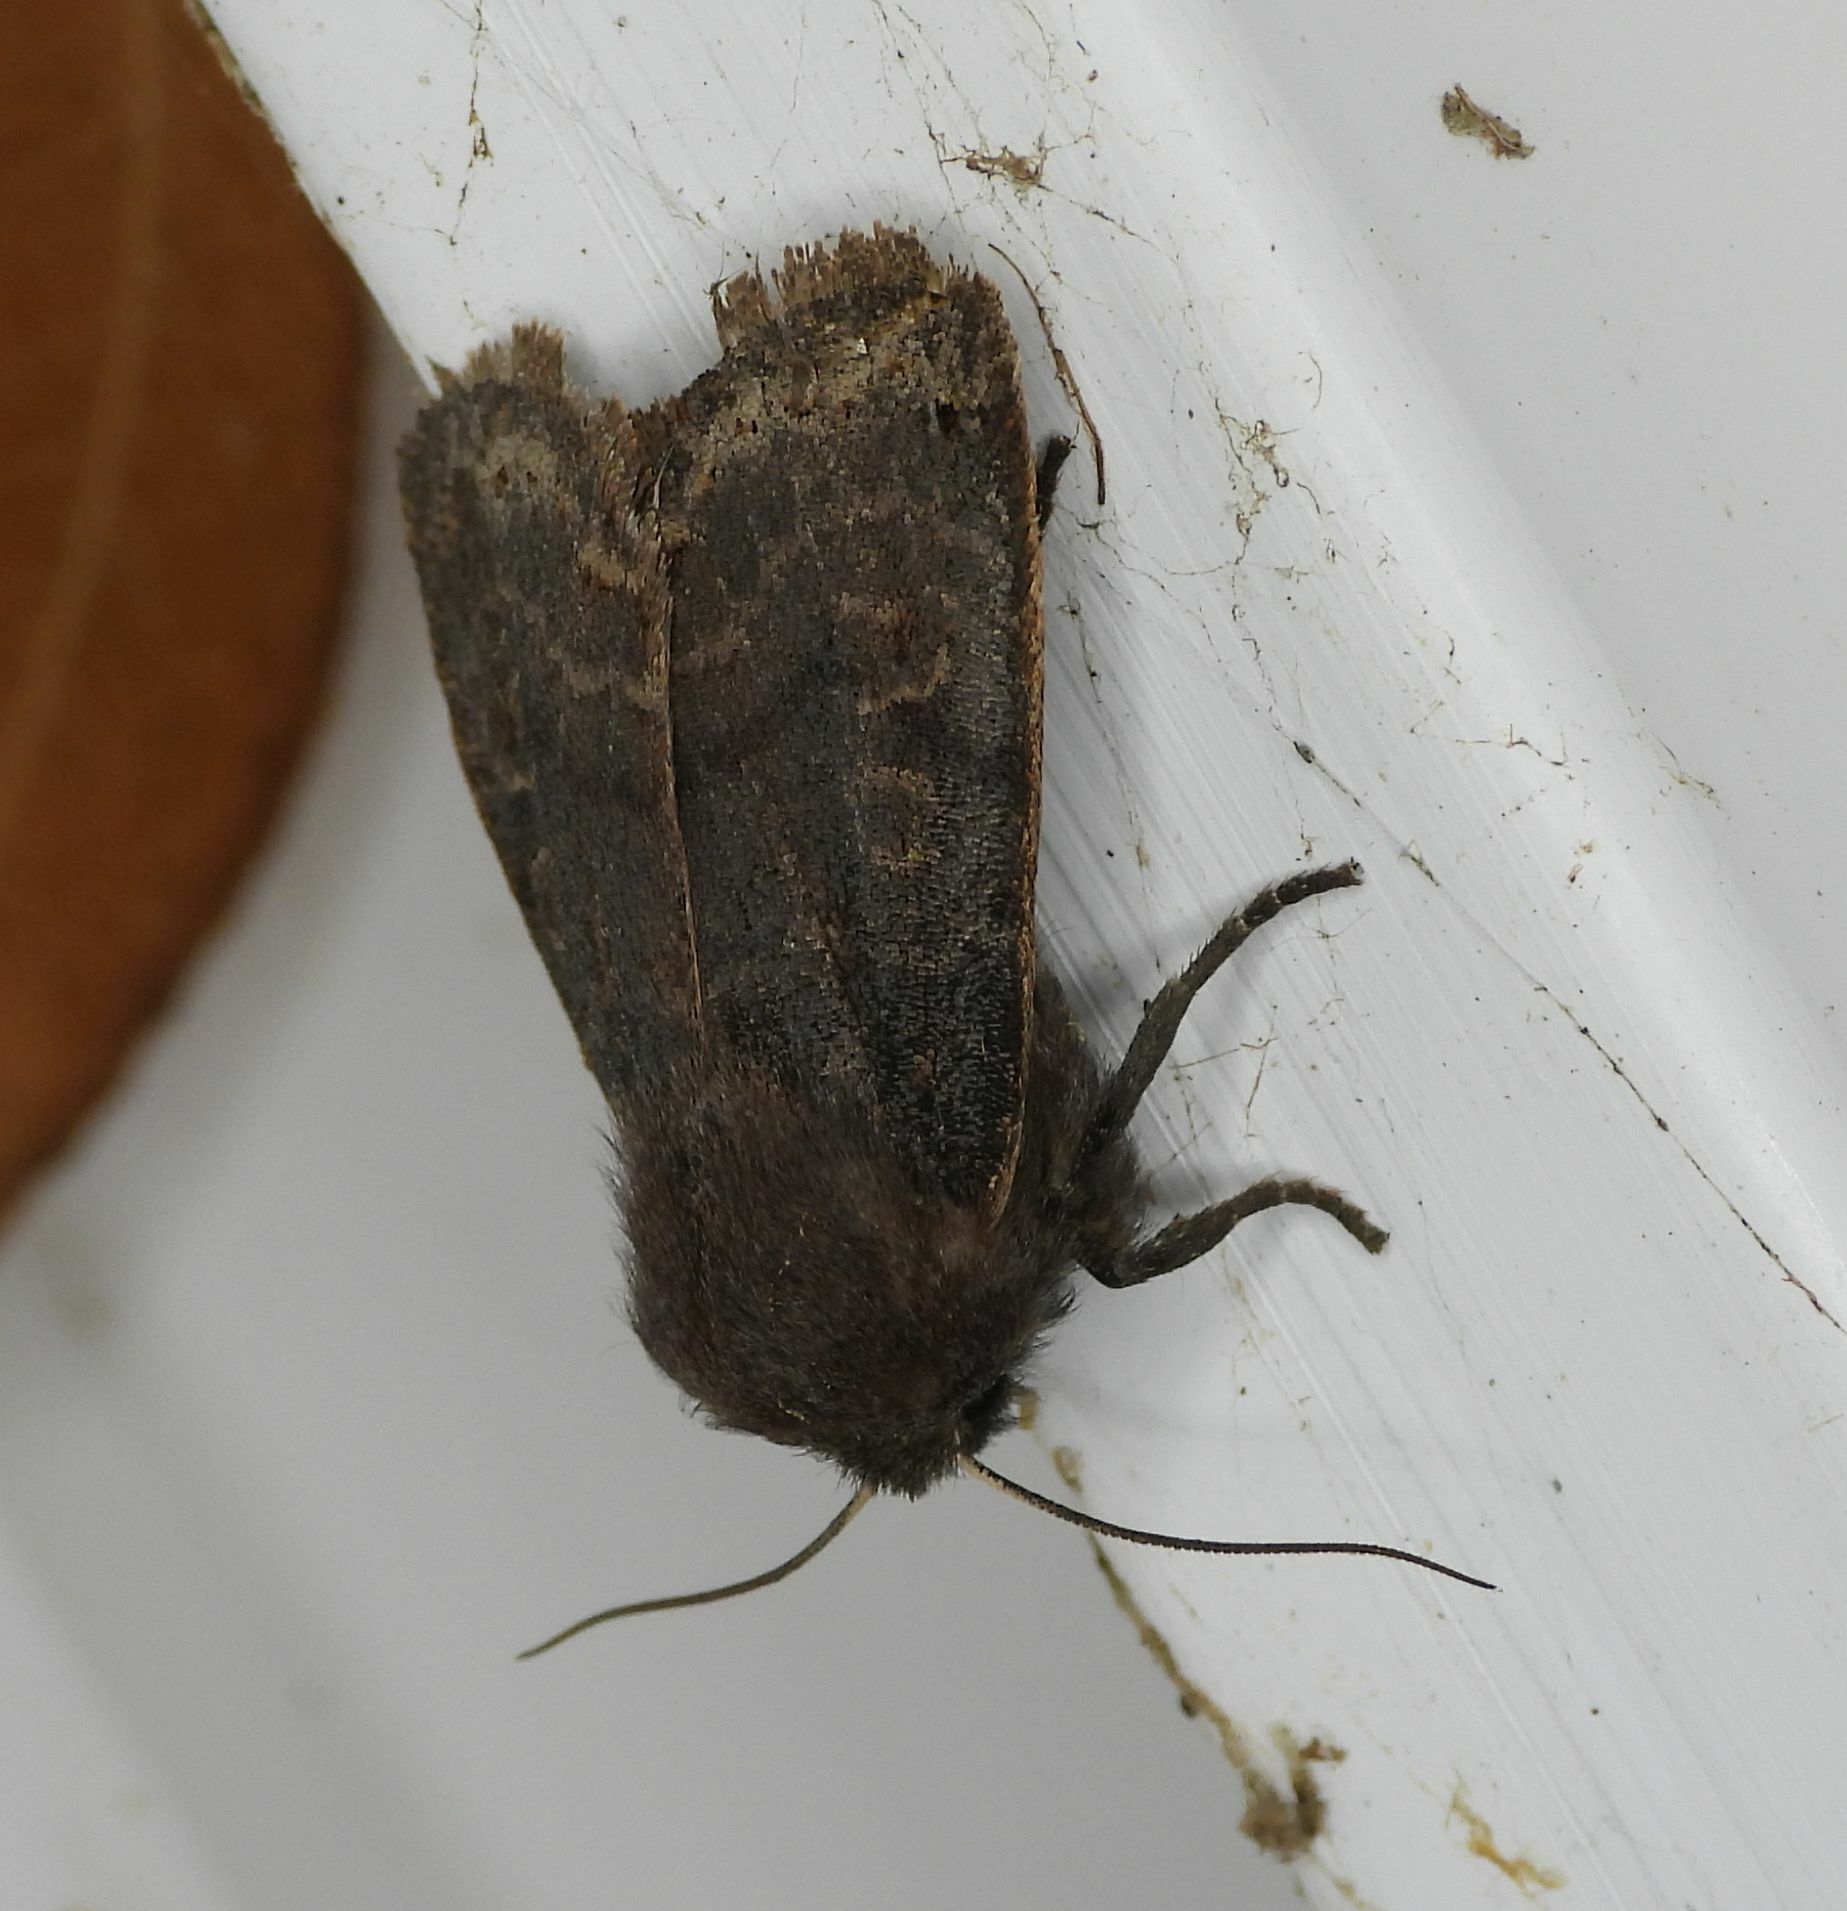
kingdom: Animalia
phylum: Arthropoda
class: Insecta
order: Lepidoptera
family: Noctuidae
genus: Homoglaea
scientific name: Homoglaea hircina
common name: Goat sallow
